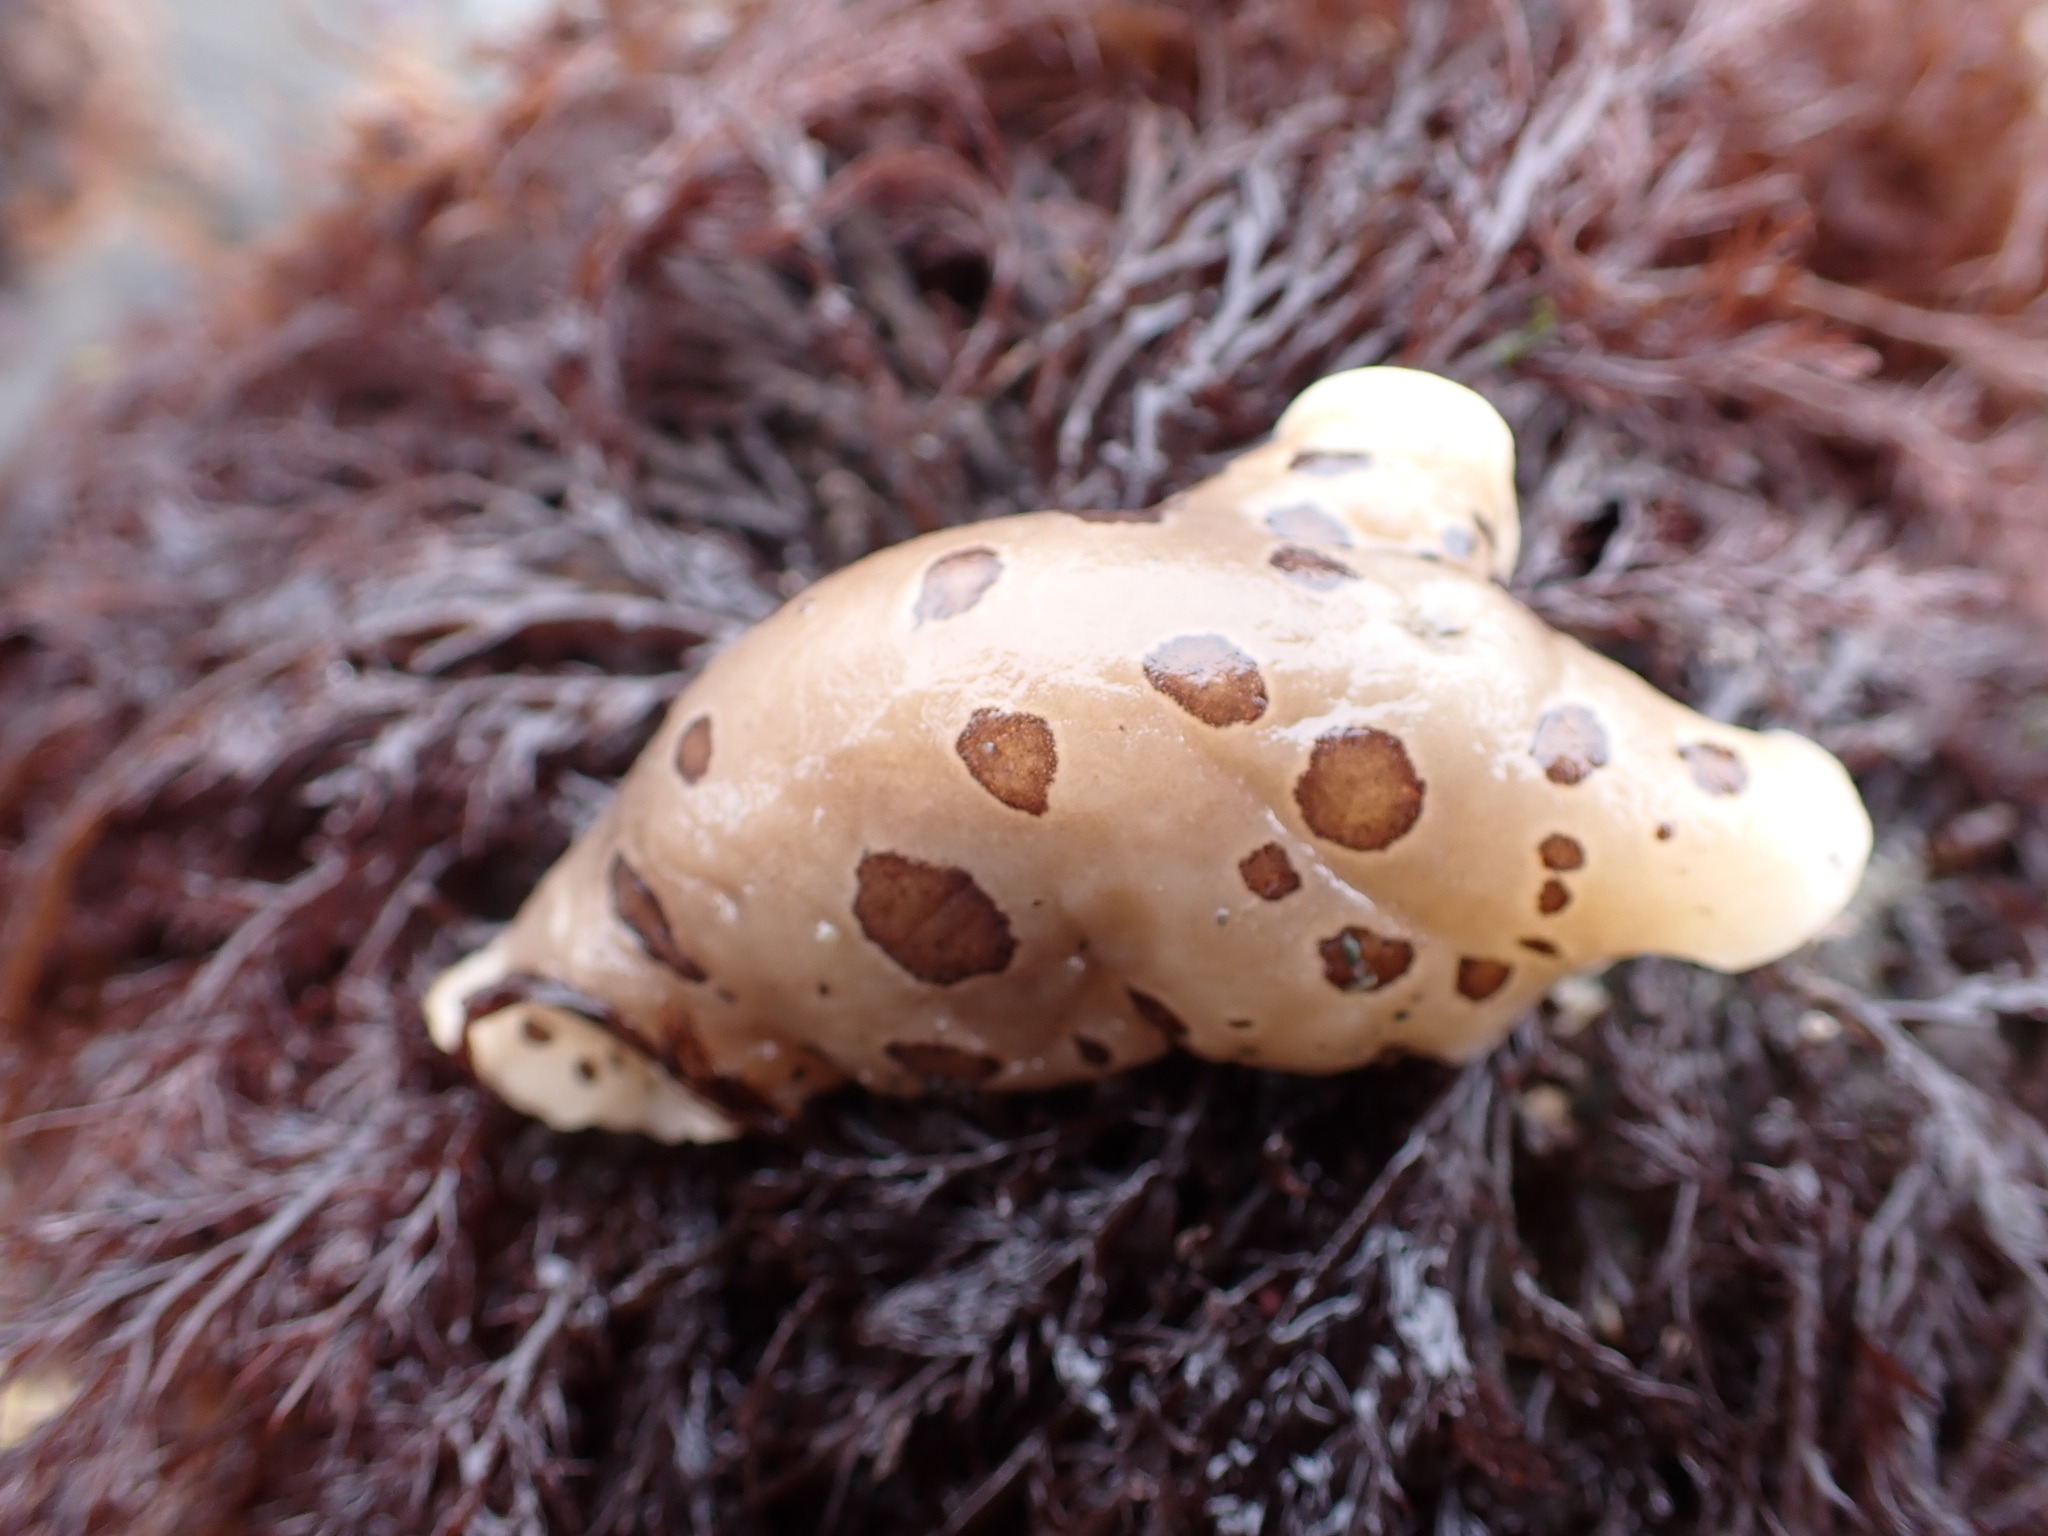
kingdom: Animalia
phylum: Mollusca
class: Gastropoda
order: Nudibranchia
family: Discodorididae
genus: Diaulula
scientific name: Diaulula odonoghuei
